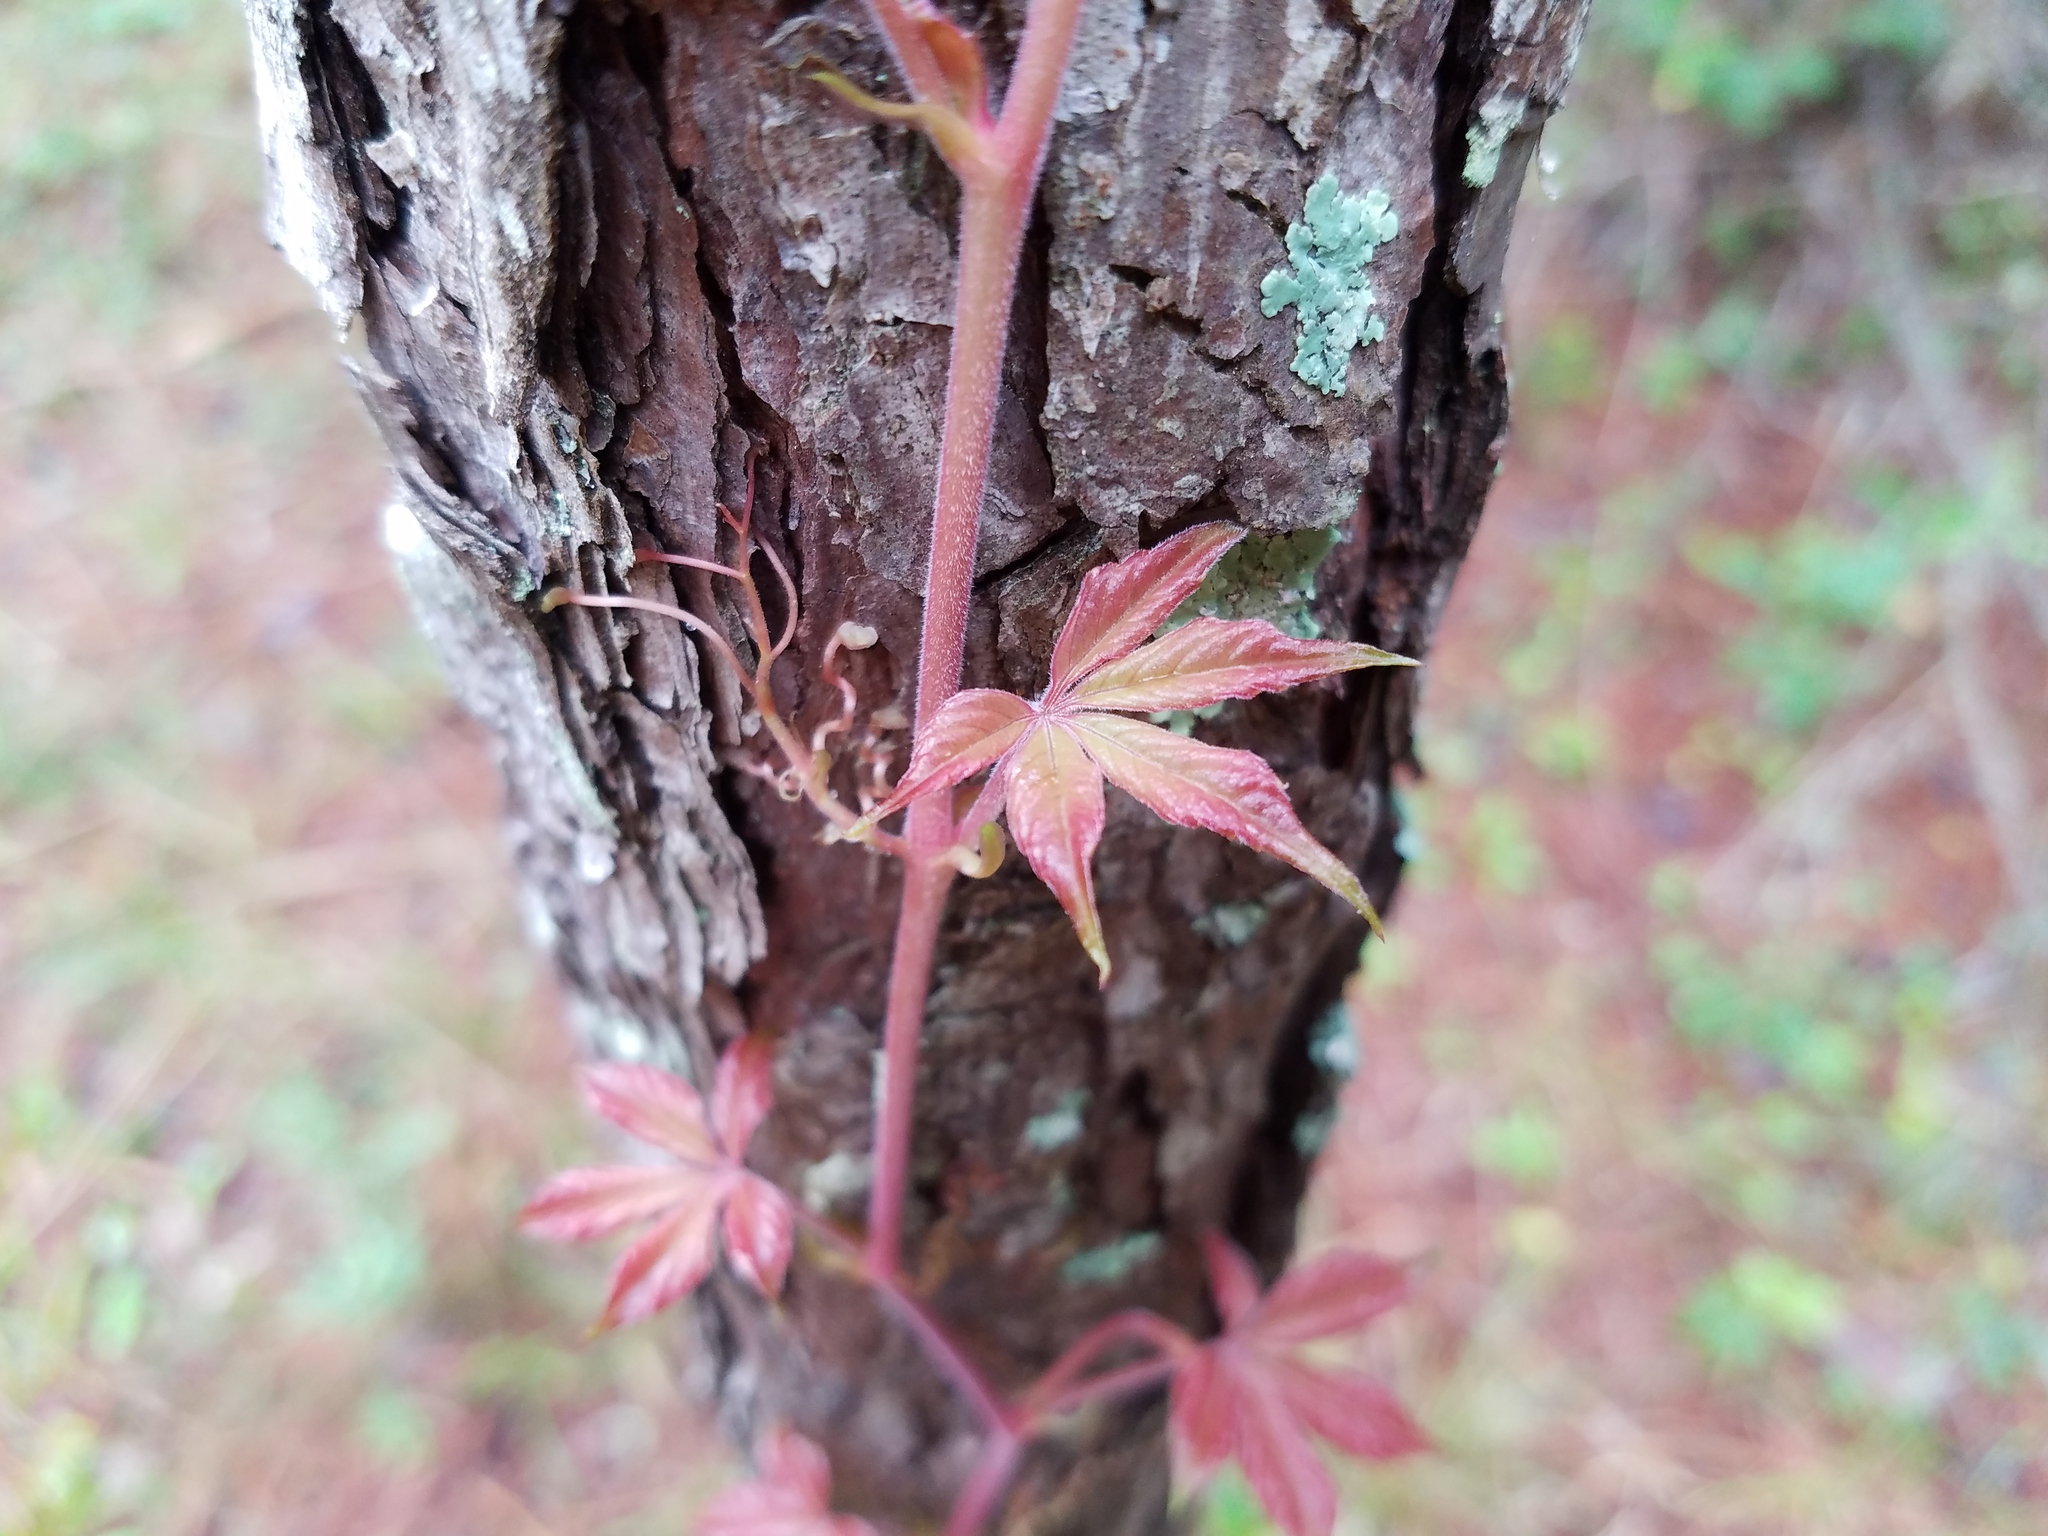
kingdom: Plantae
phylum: Tracheophyta
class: Magnoliopsida
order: Vitales
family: Vitaceae
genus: Parthenocissus
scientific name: Parthenocissus quinquefolia
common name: Virginia-creeper
